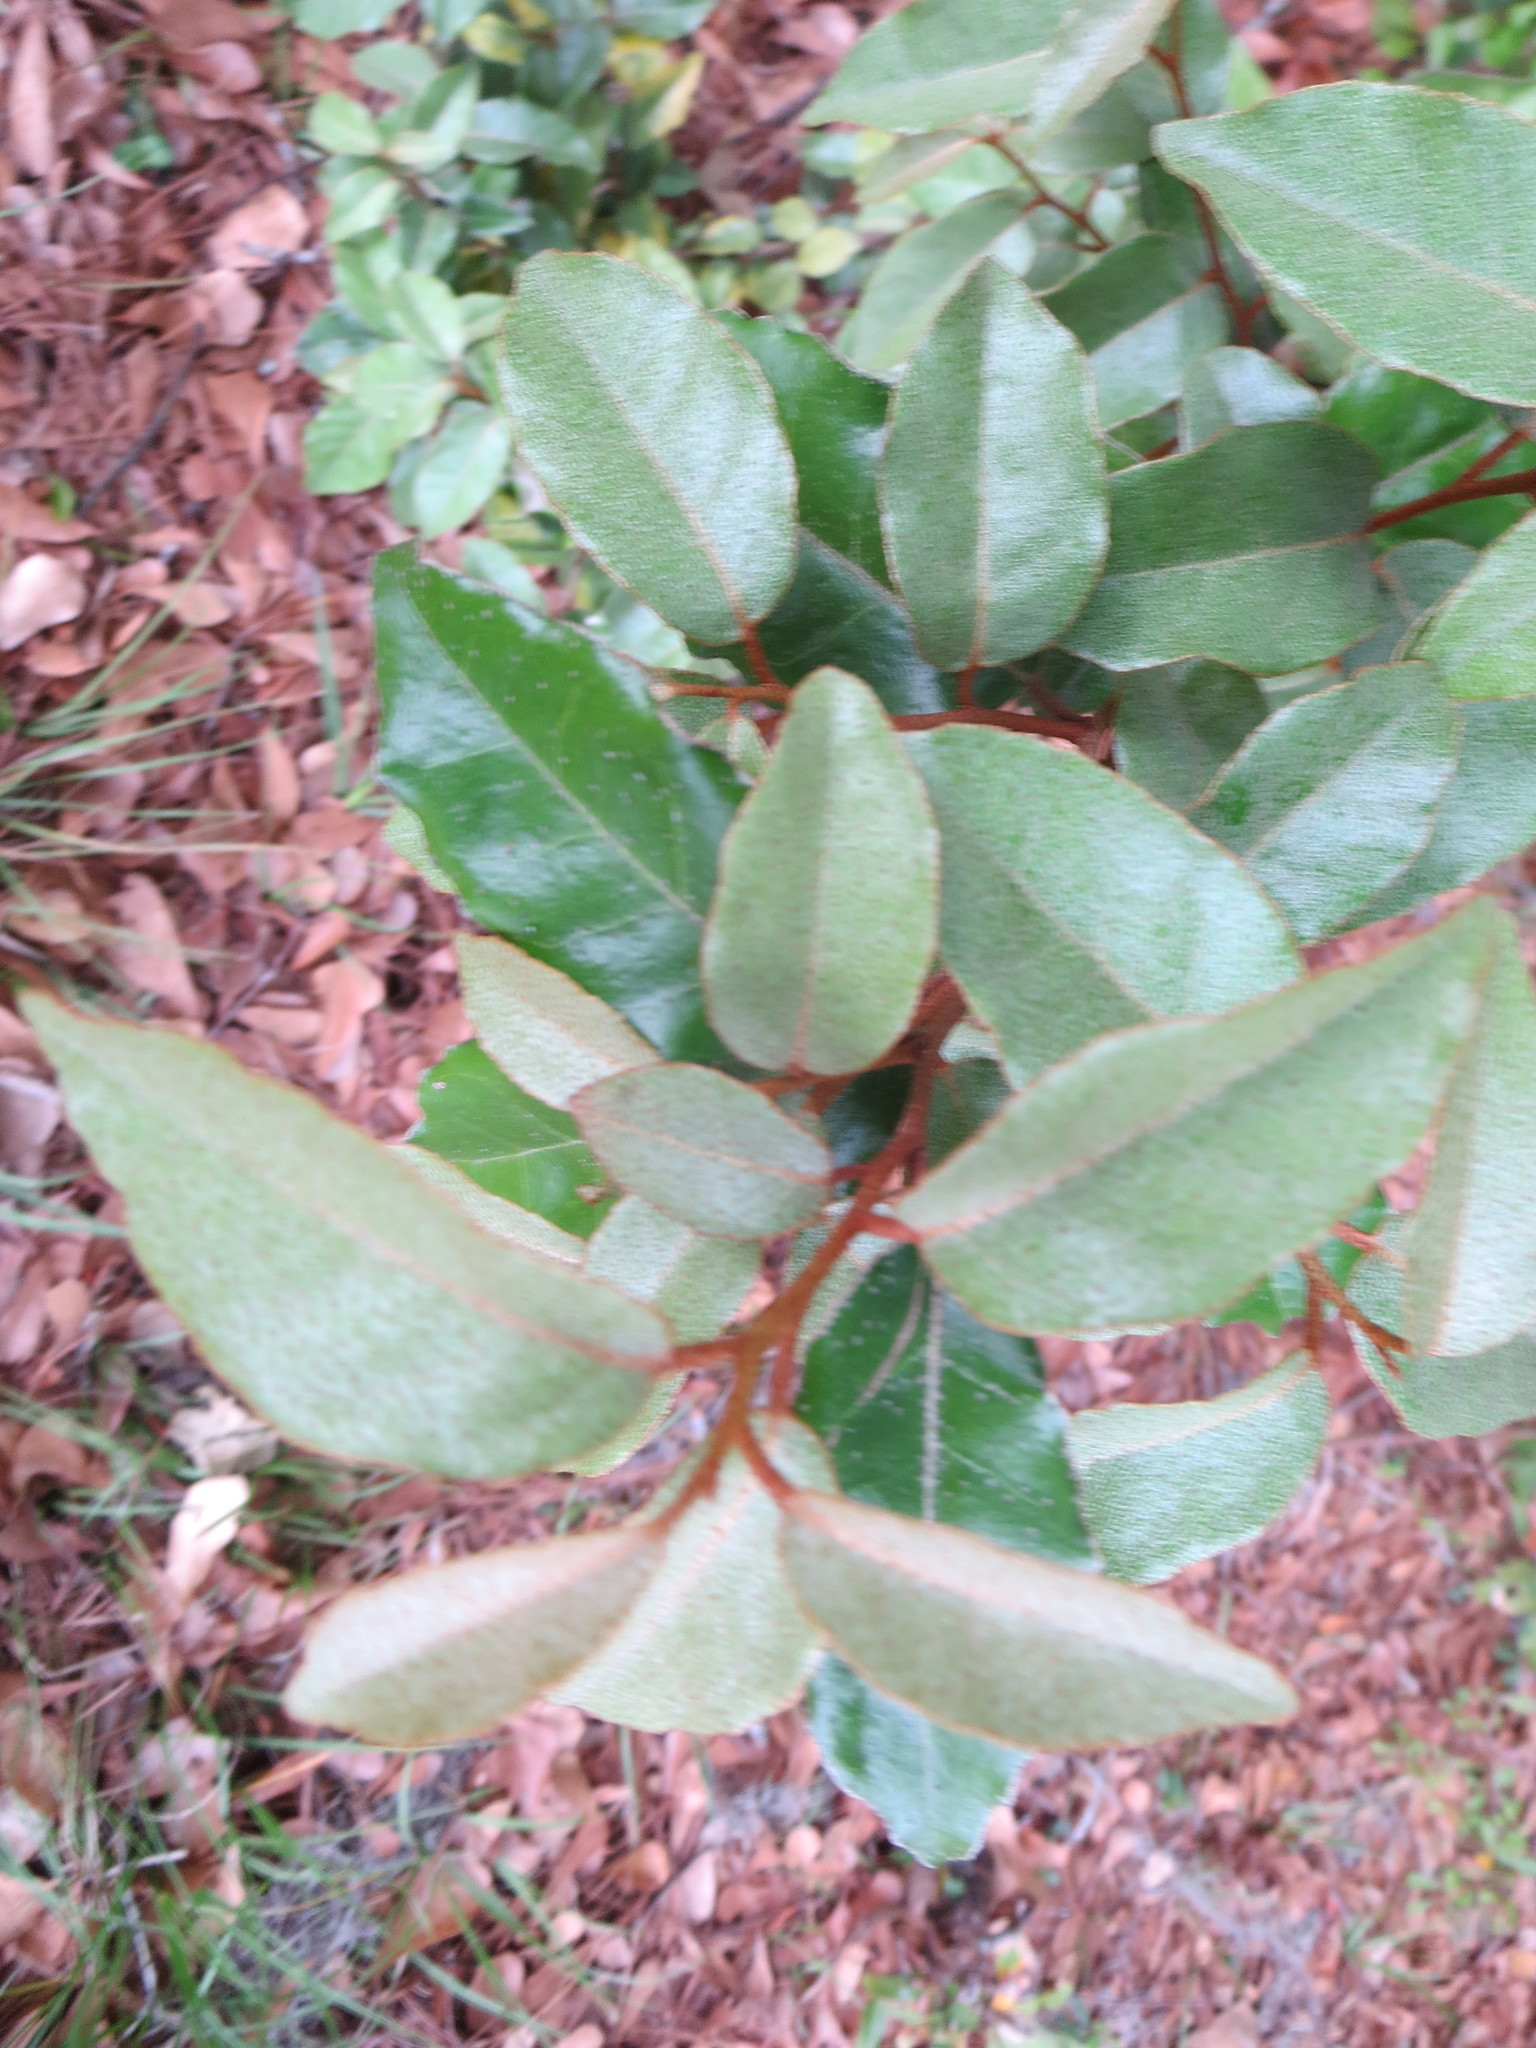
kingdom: Plantae
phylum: Tracheophyta
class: Magnoliopsida
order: Rosales
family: Elaeagnaceae
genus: Elaeagnus
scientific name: Elaeagnus pungens
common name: Spiny oleaster
